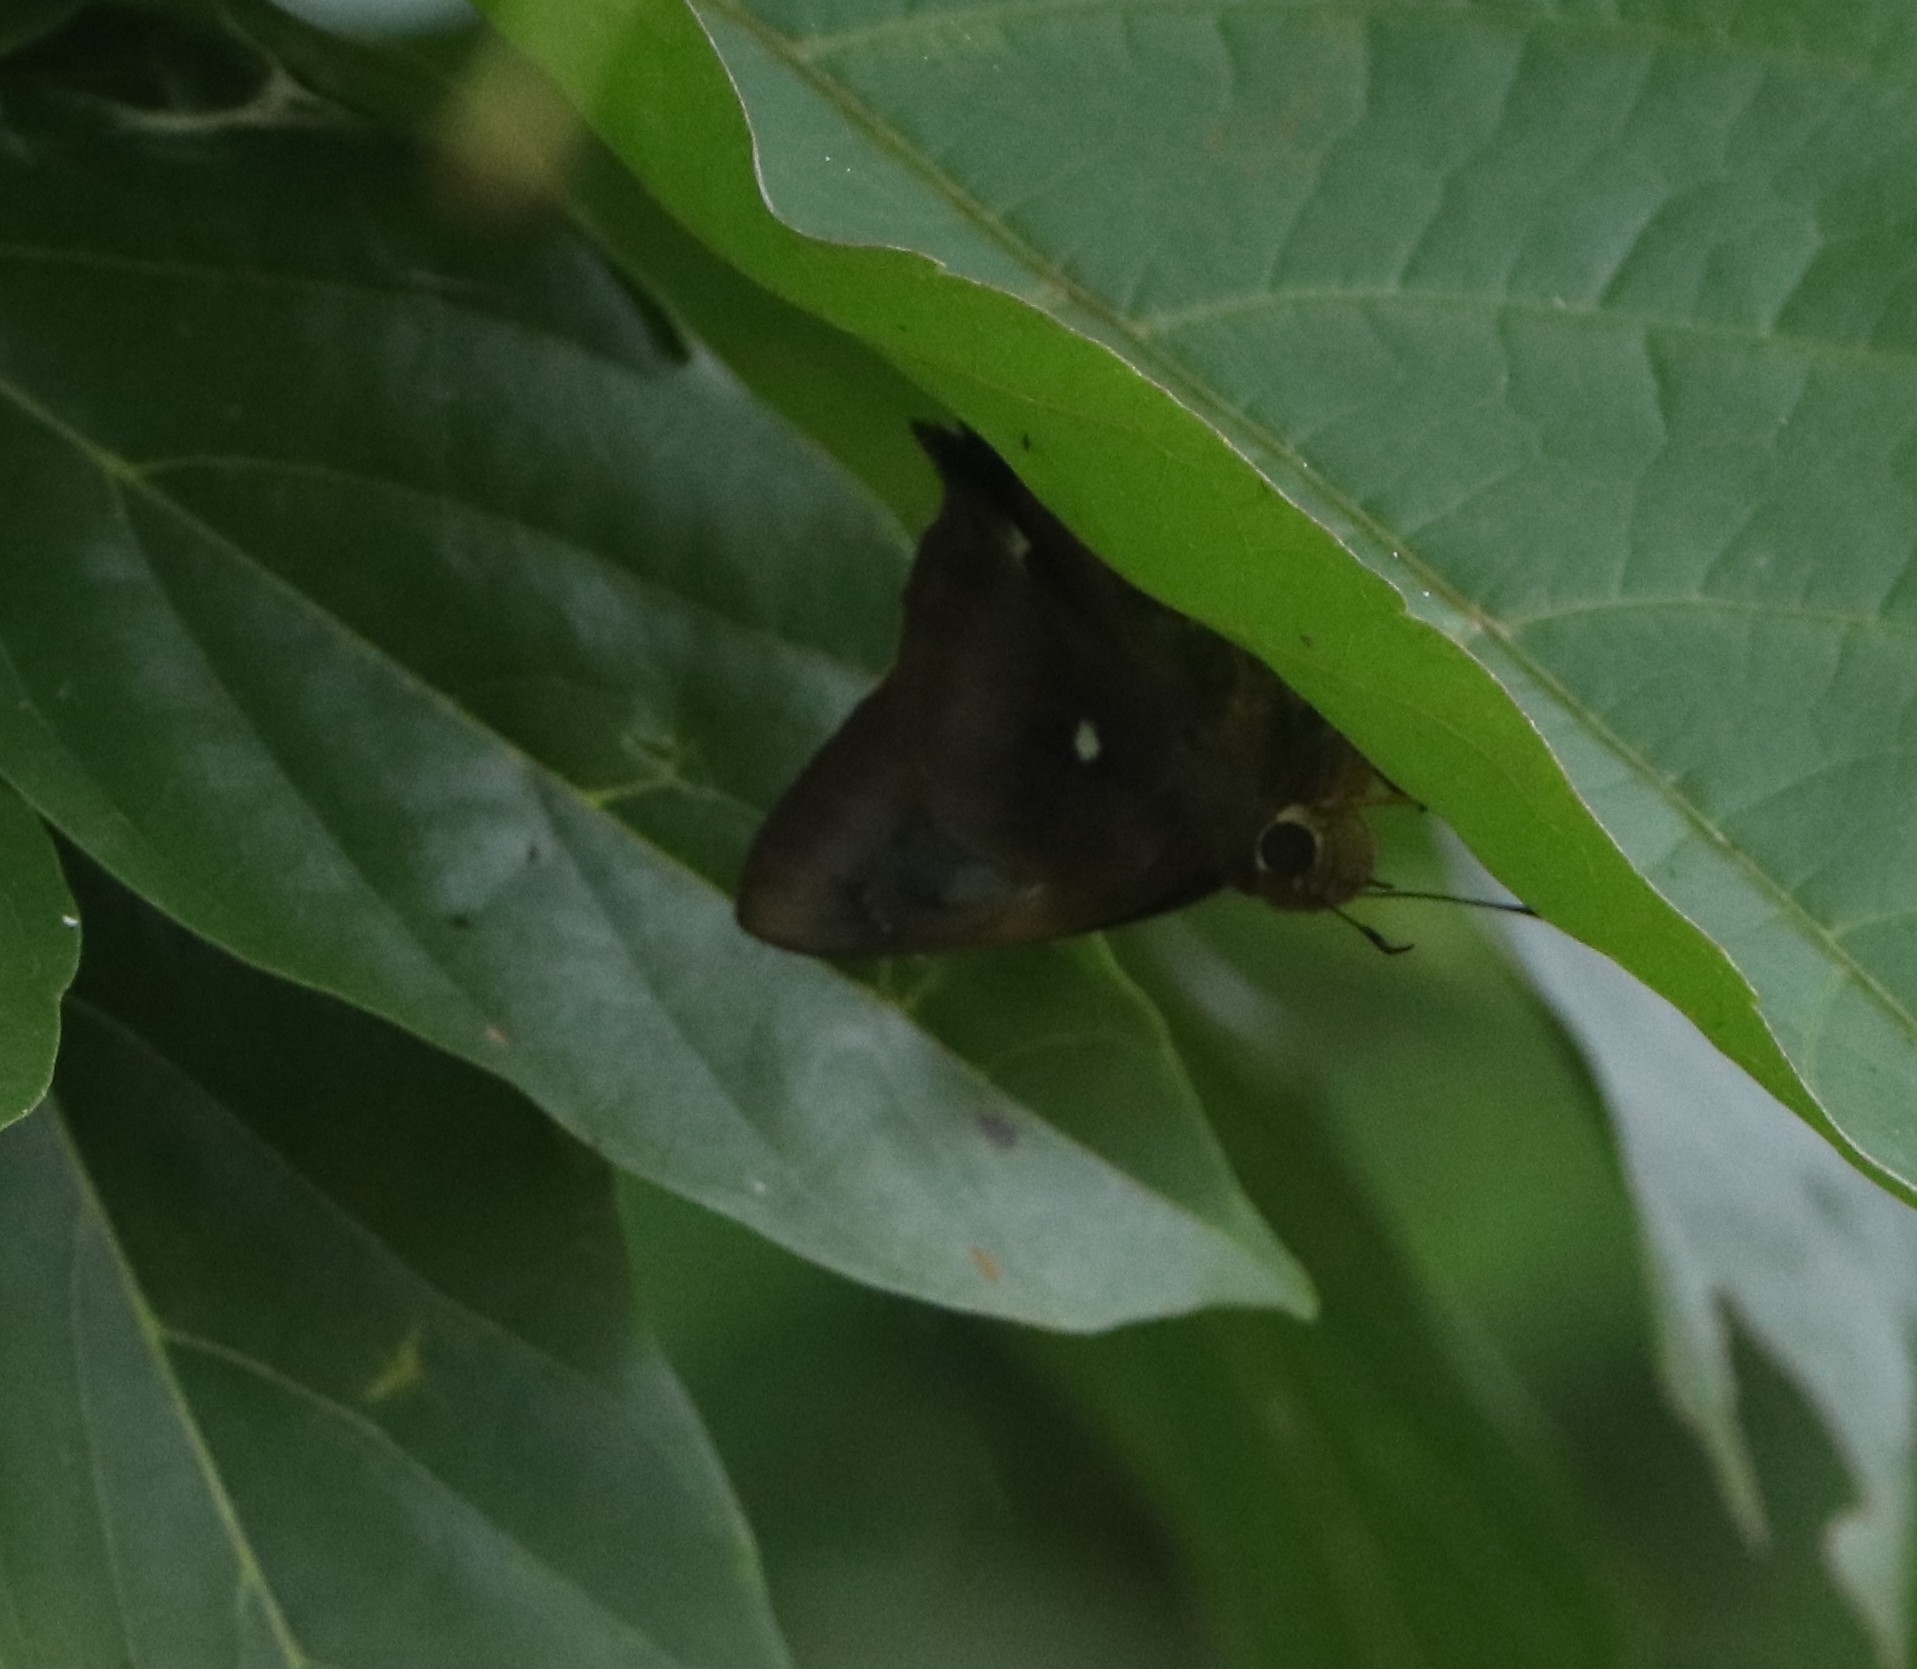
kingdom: Animalia
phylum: Arthropoda
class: Insecta
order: Lepidoptera
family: Hesperiidae
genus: Hasora
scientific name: Hasora badra
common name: Common awl
